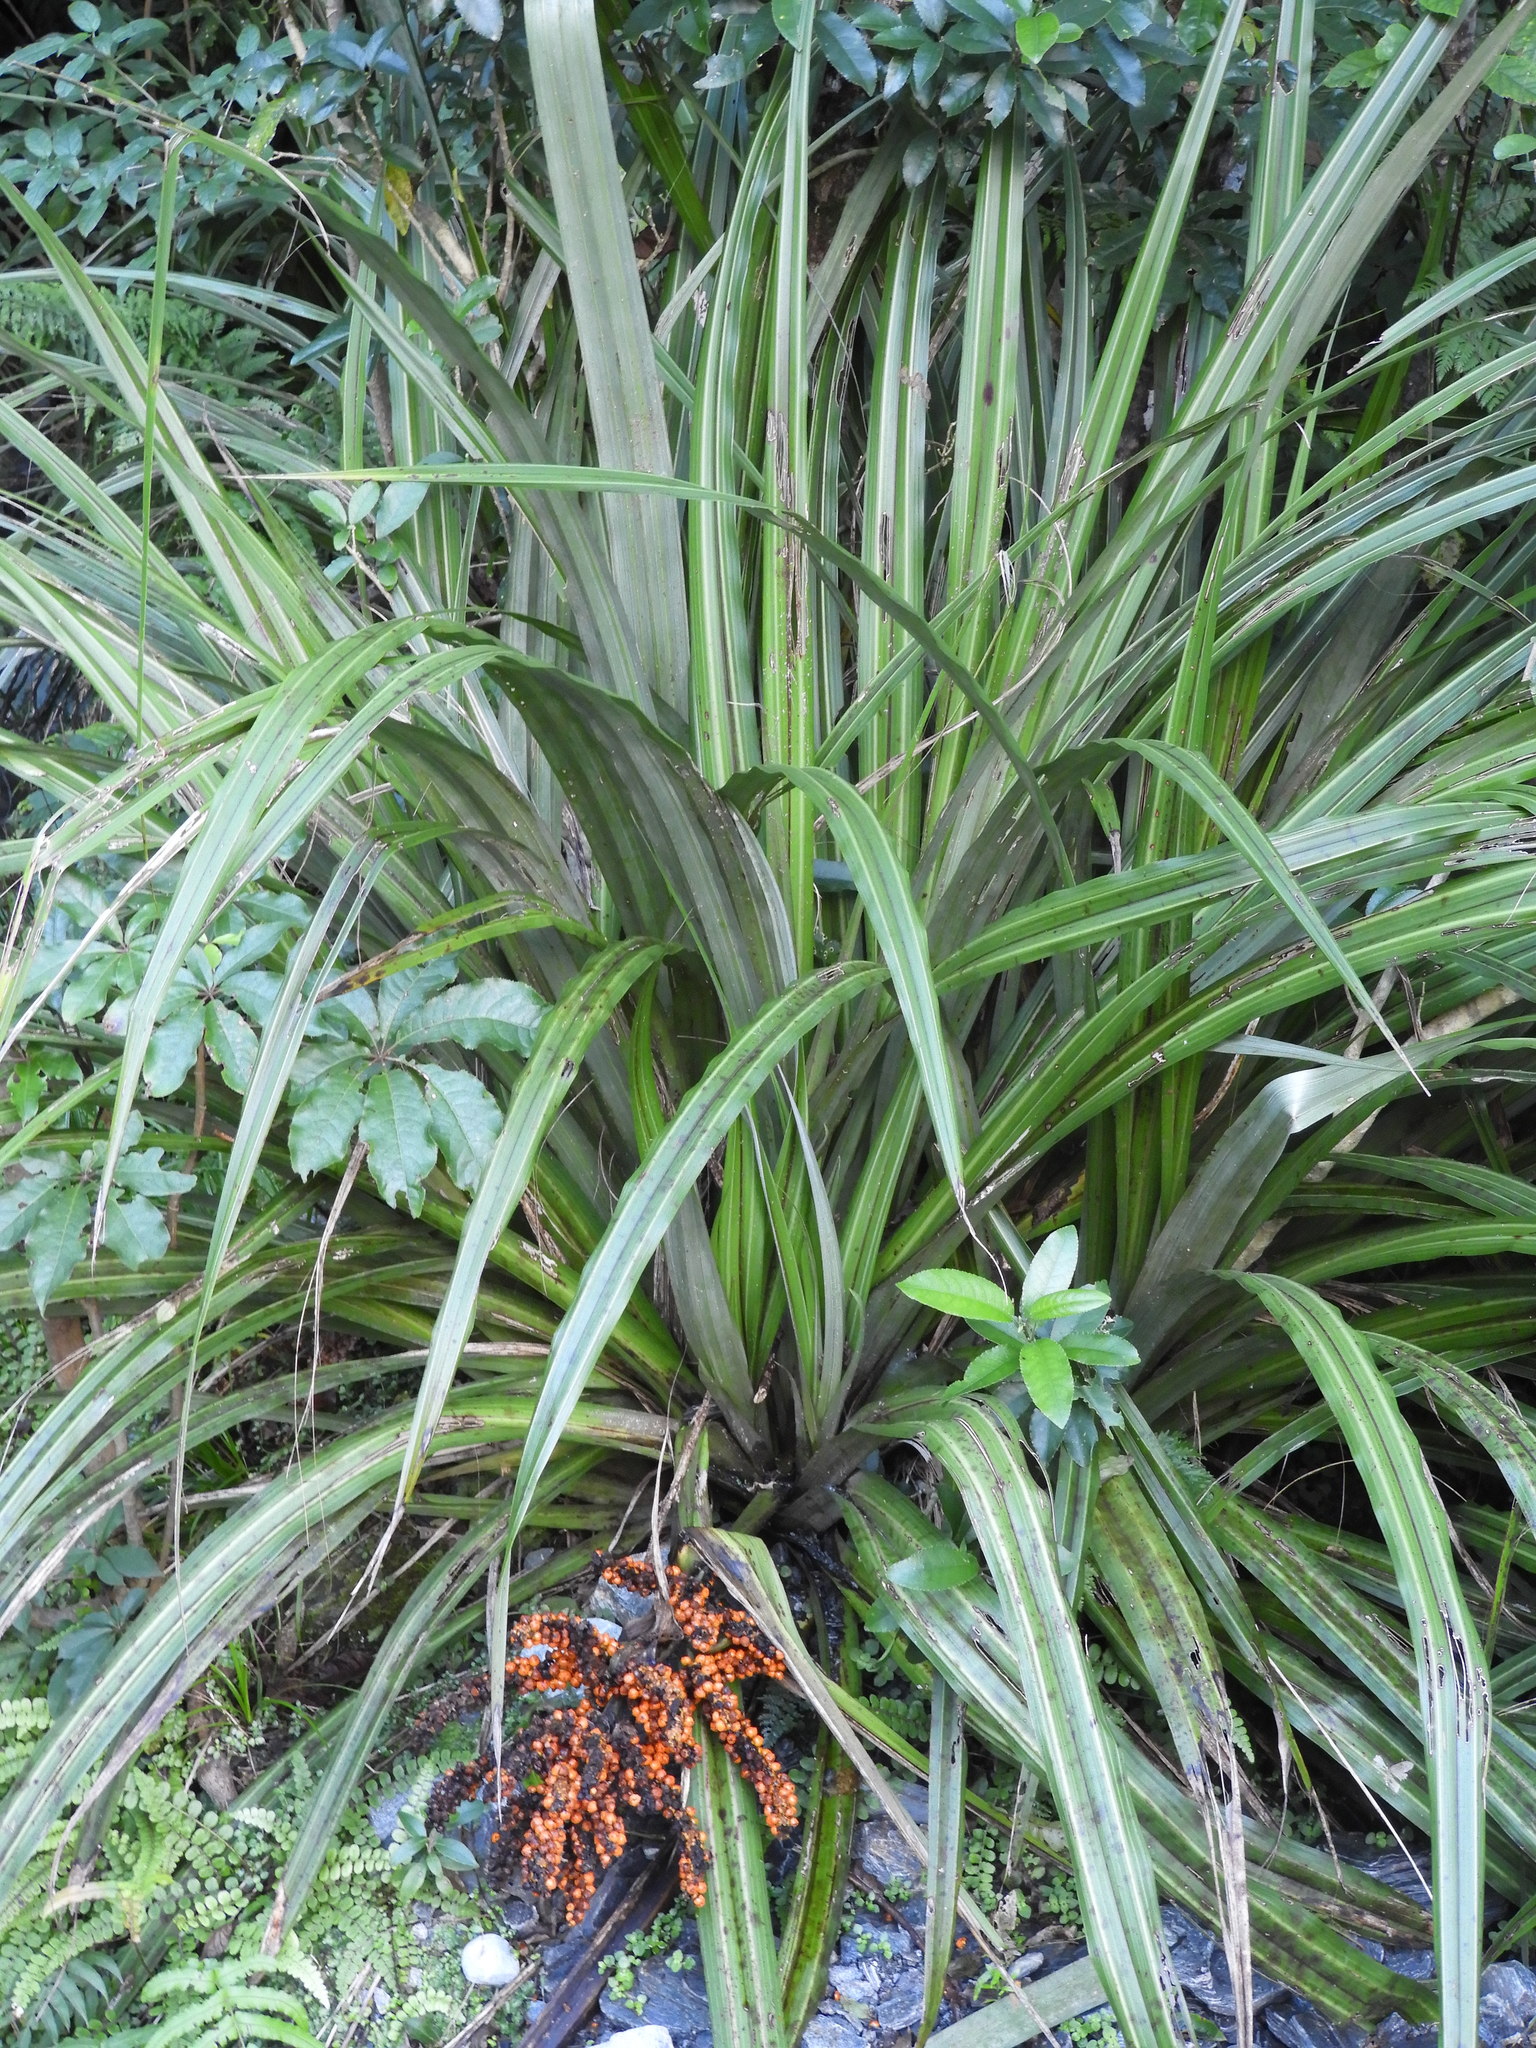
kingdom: Plantae
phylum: Tracheophyta
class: Liliopsida
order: Asparagales
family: Asteliaceae
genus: Astelia
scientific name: Astelia fragrans
